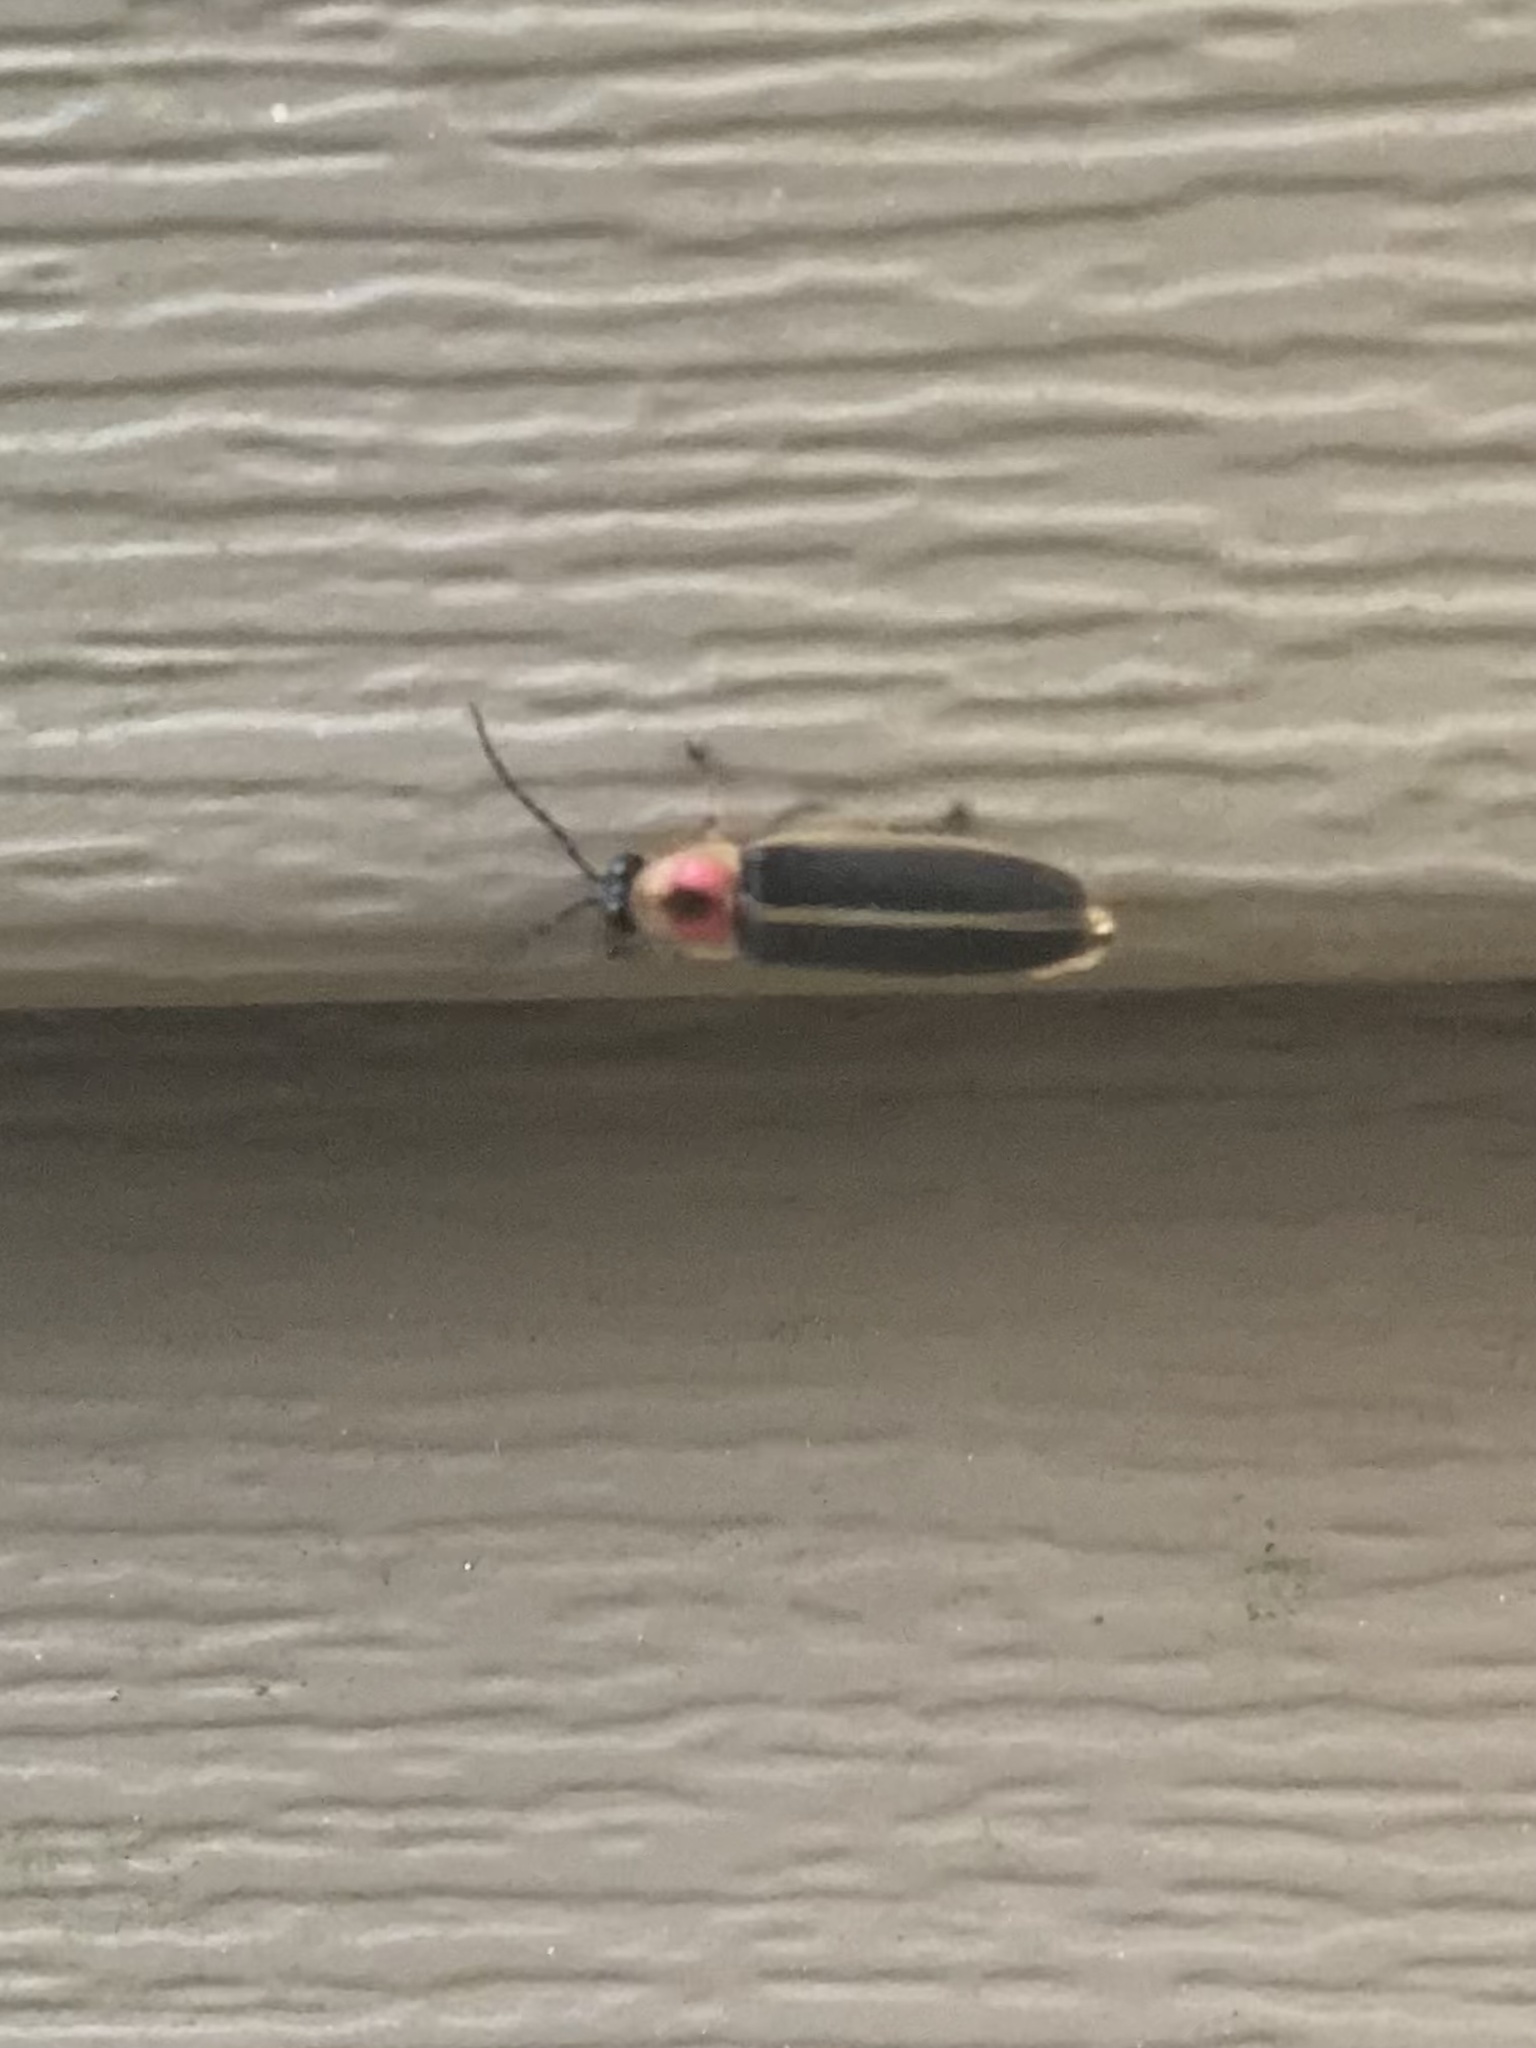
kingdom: Animalia
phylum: Arthropoda
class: Insecta
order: Coleoptera
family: Lampyridae
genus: Photinus
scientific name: Photinus pyralis
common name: Big dipper firefly
